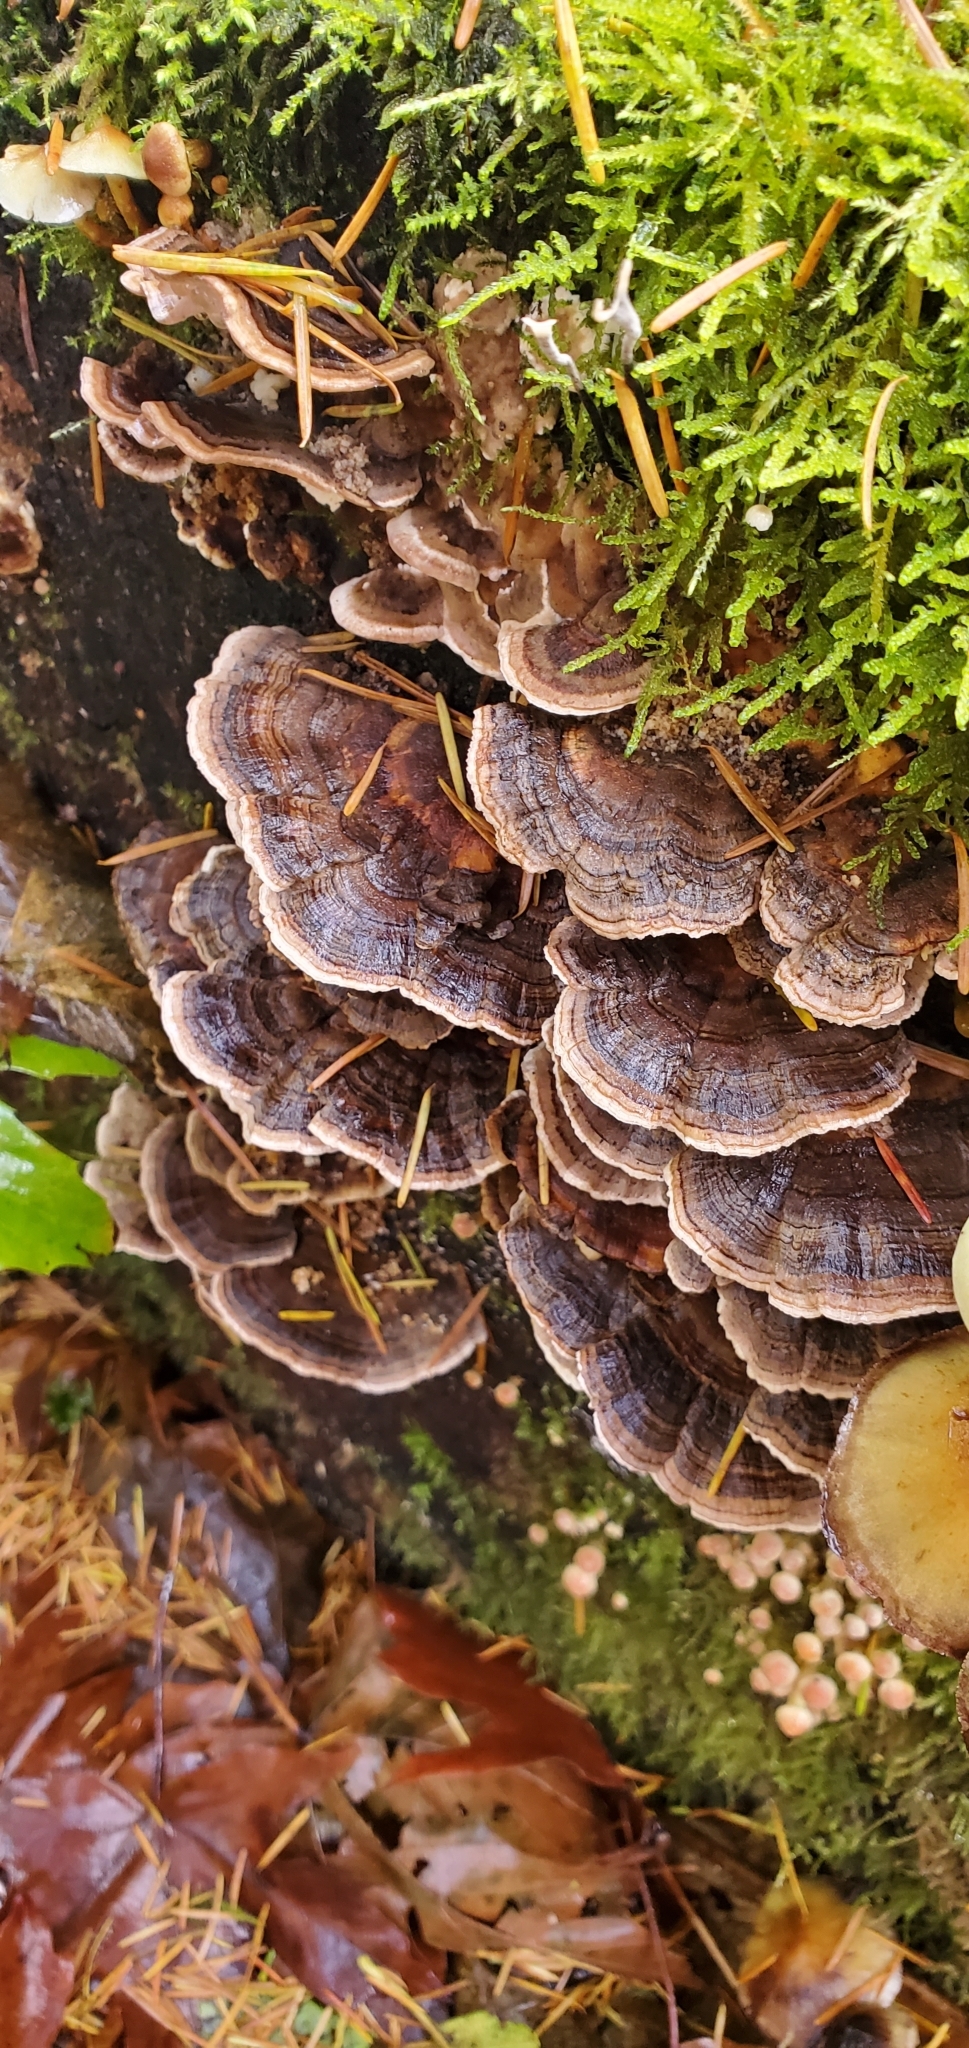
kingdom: Fungi
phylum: Basidiomycota
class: Agaricomycetes
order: Polyporales
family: Polyporaceae
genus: Trametes
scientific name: Trametes versicolor
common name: Turkeytail
